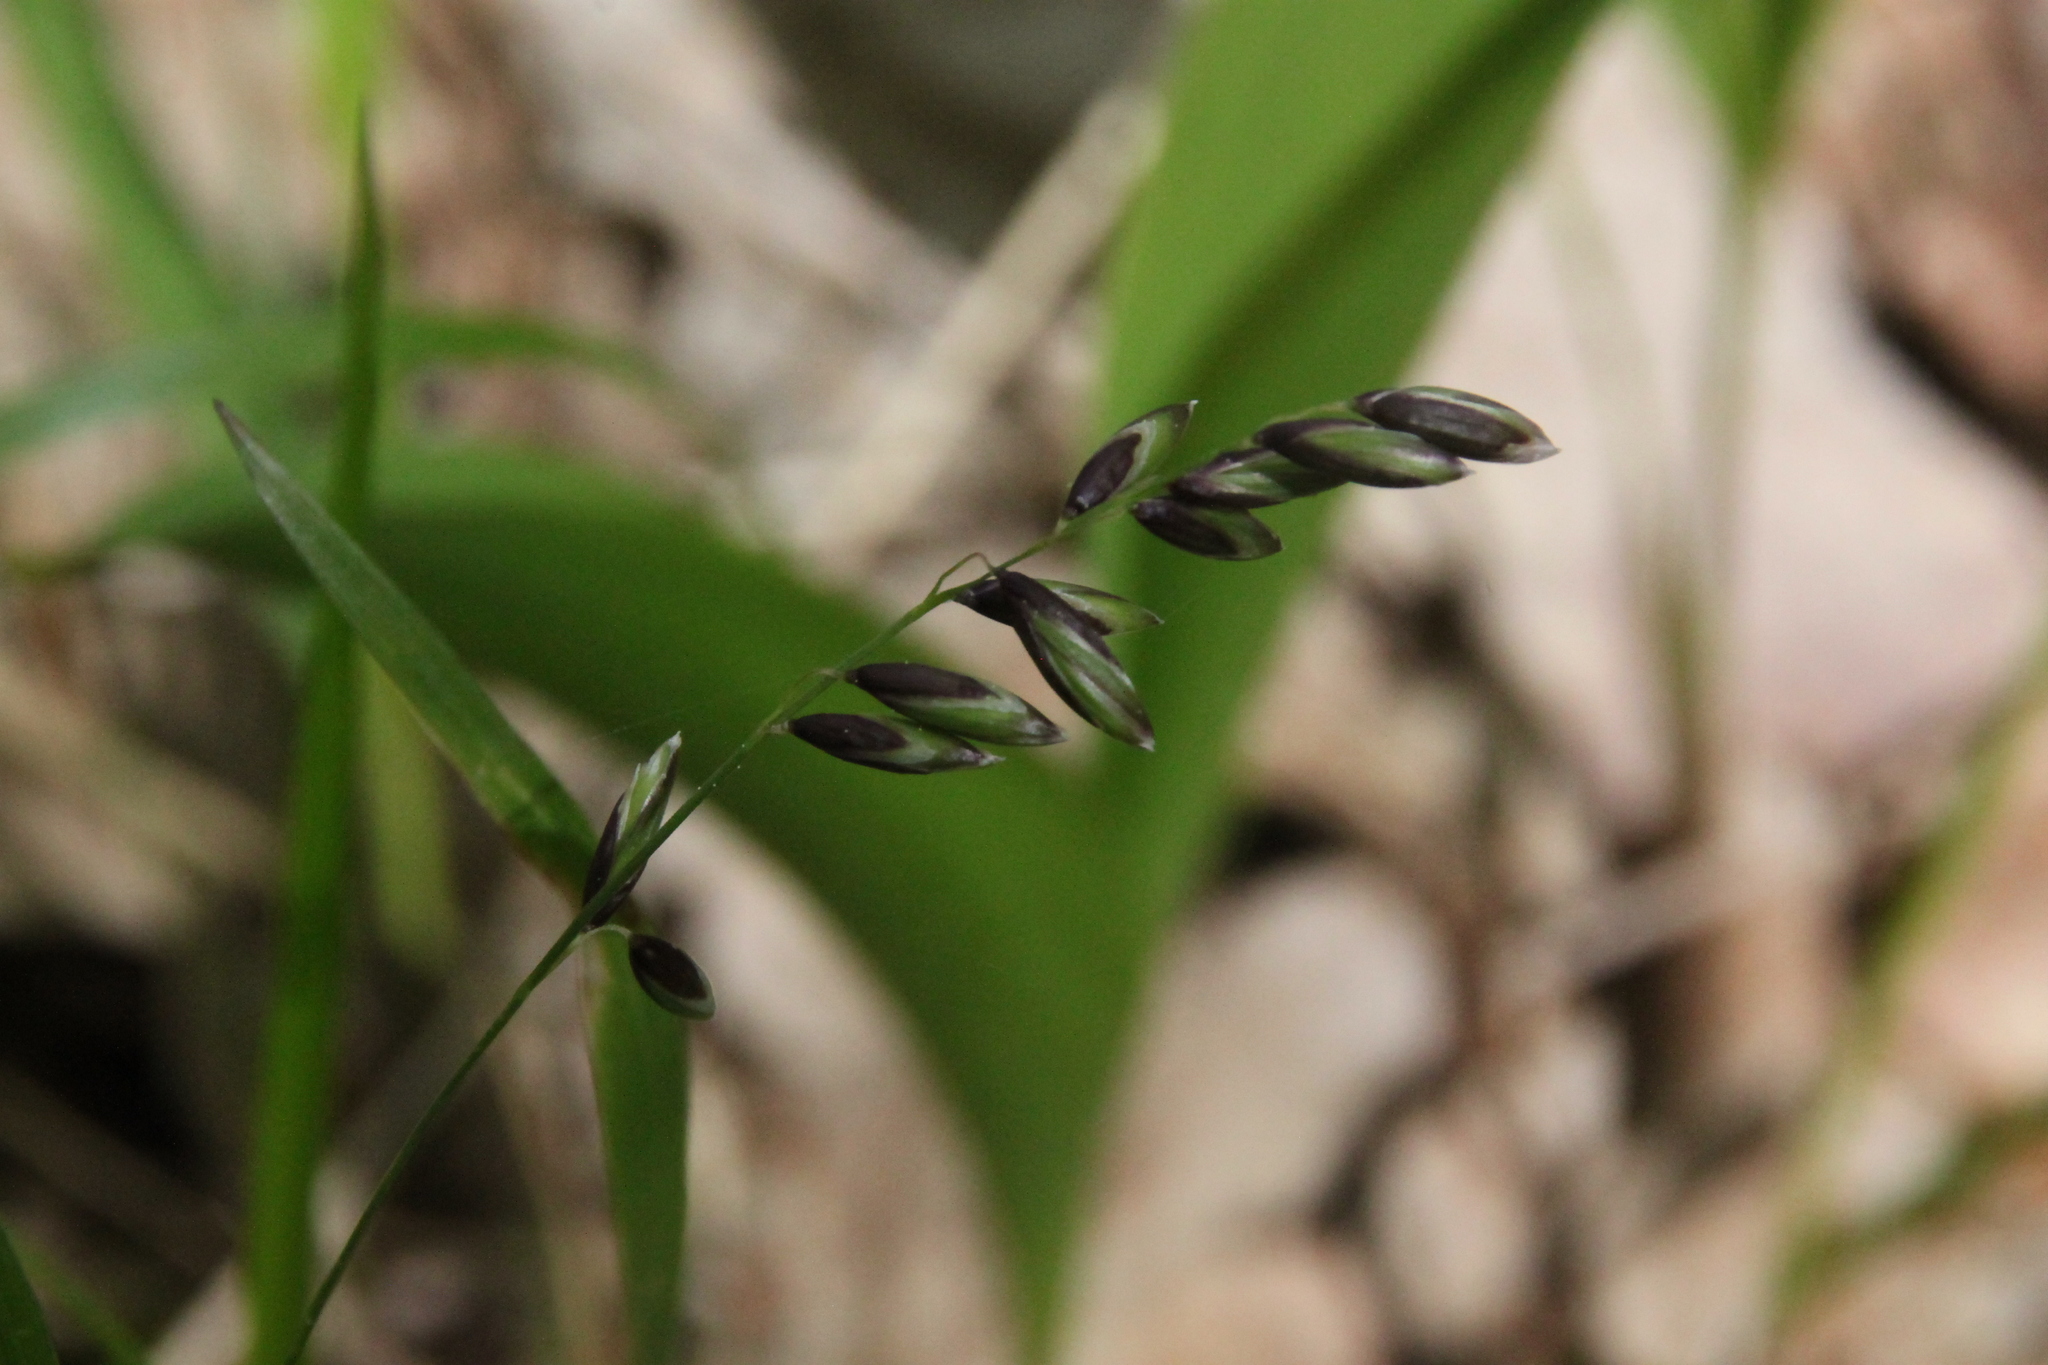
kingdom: Plantae
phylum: Tracheophyta
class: Liliopsida
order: Poales
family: Poaceae
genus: Melica
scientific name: Melica nutans
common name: Mountain melick
